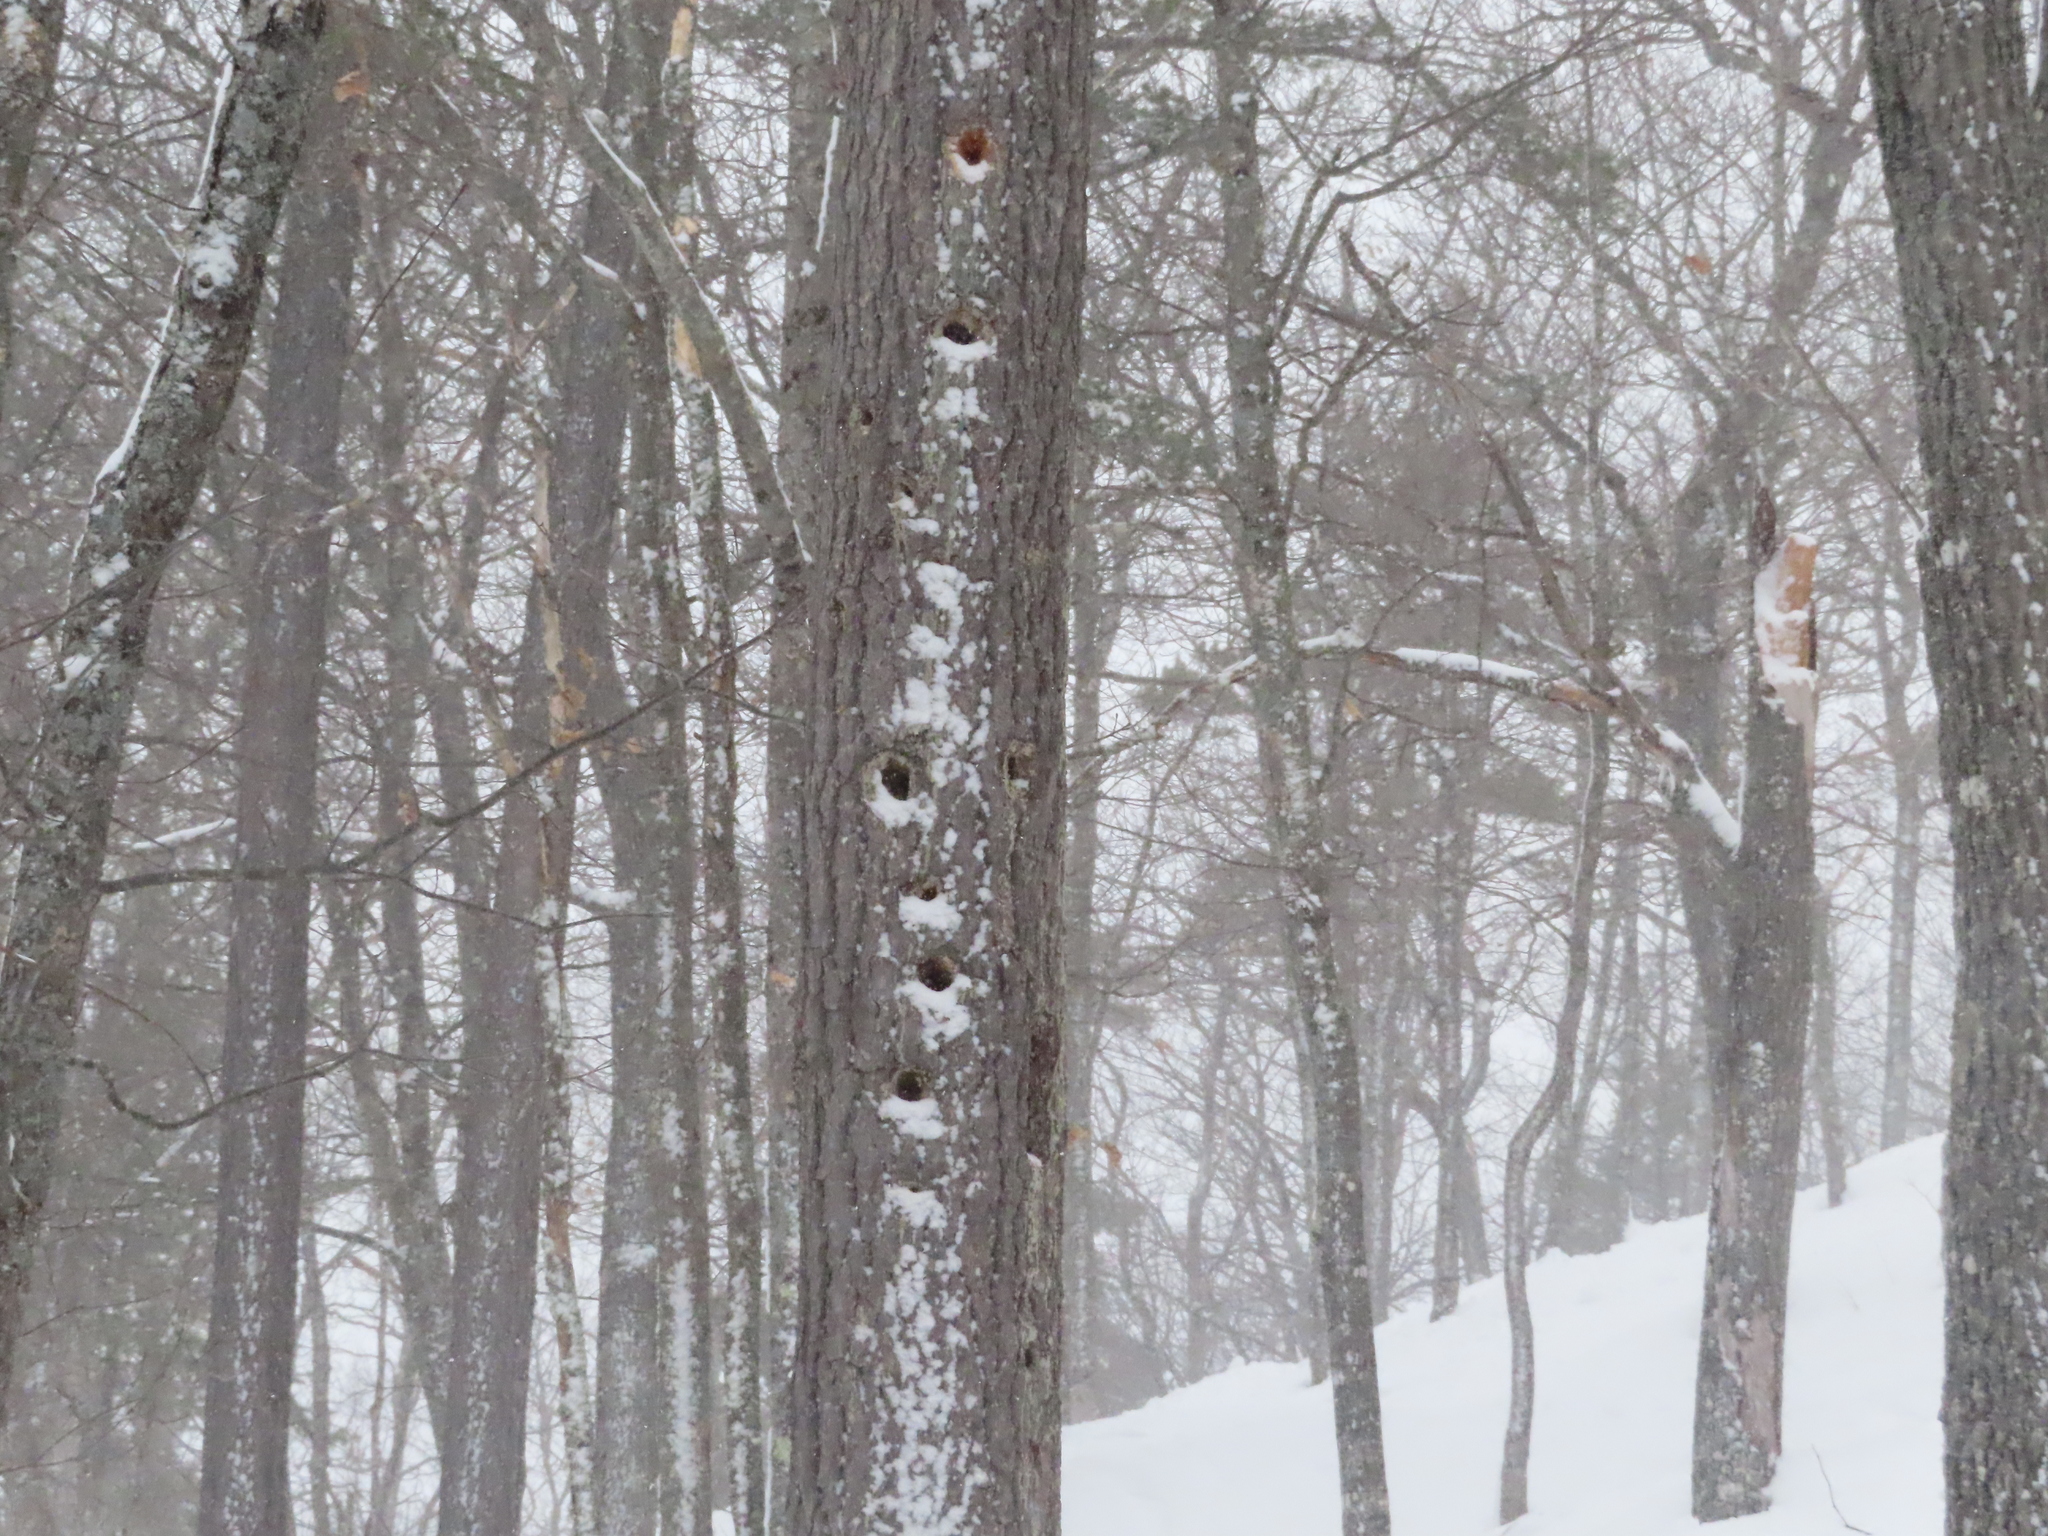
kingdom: Animalia
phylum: Chordata
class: Aves
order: Piciformes
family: Picidae
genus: Dryocopus
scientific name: Dryocopus pileatus
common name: Pileated woodpecker
